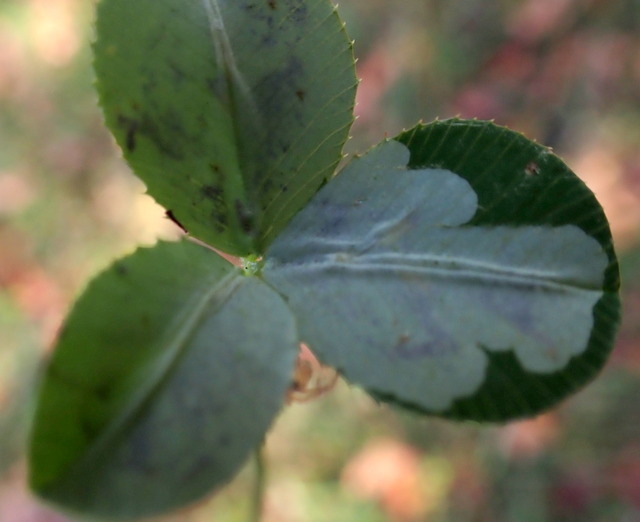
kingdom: Animalia
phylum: Arthropoda
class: Insecta
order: Lepidoptera
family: Gracillariidae
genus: Porphyrosela
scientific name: Porphyrosela minuta
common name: Leaf miner moth
